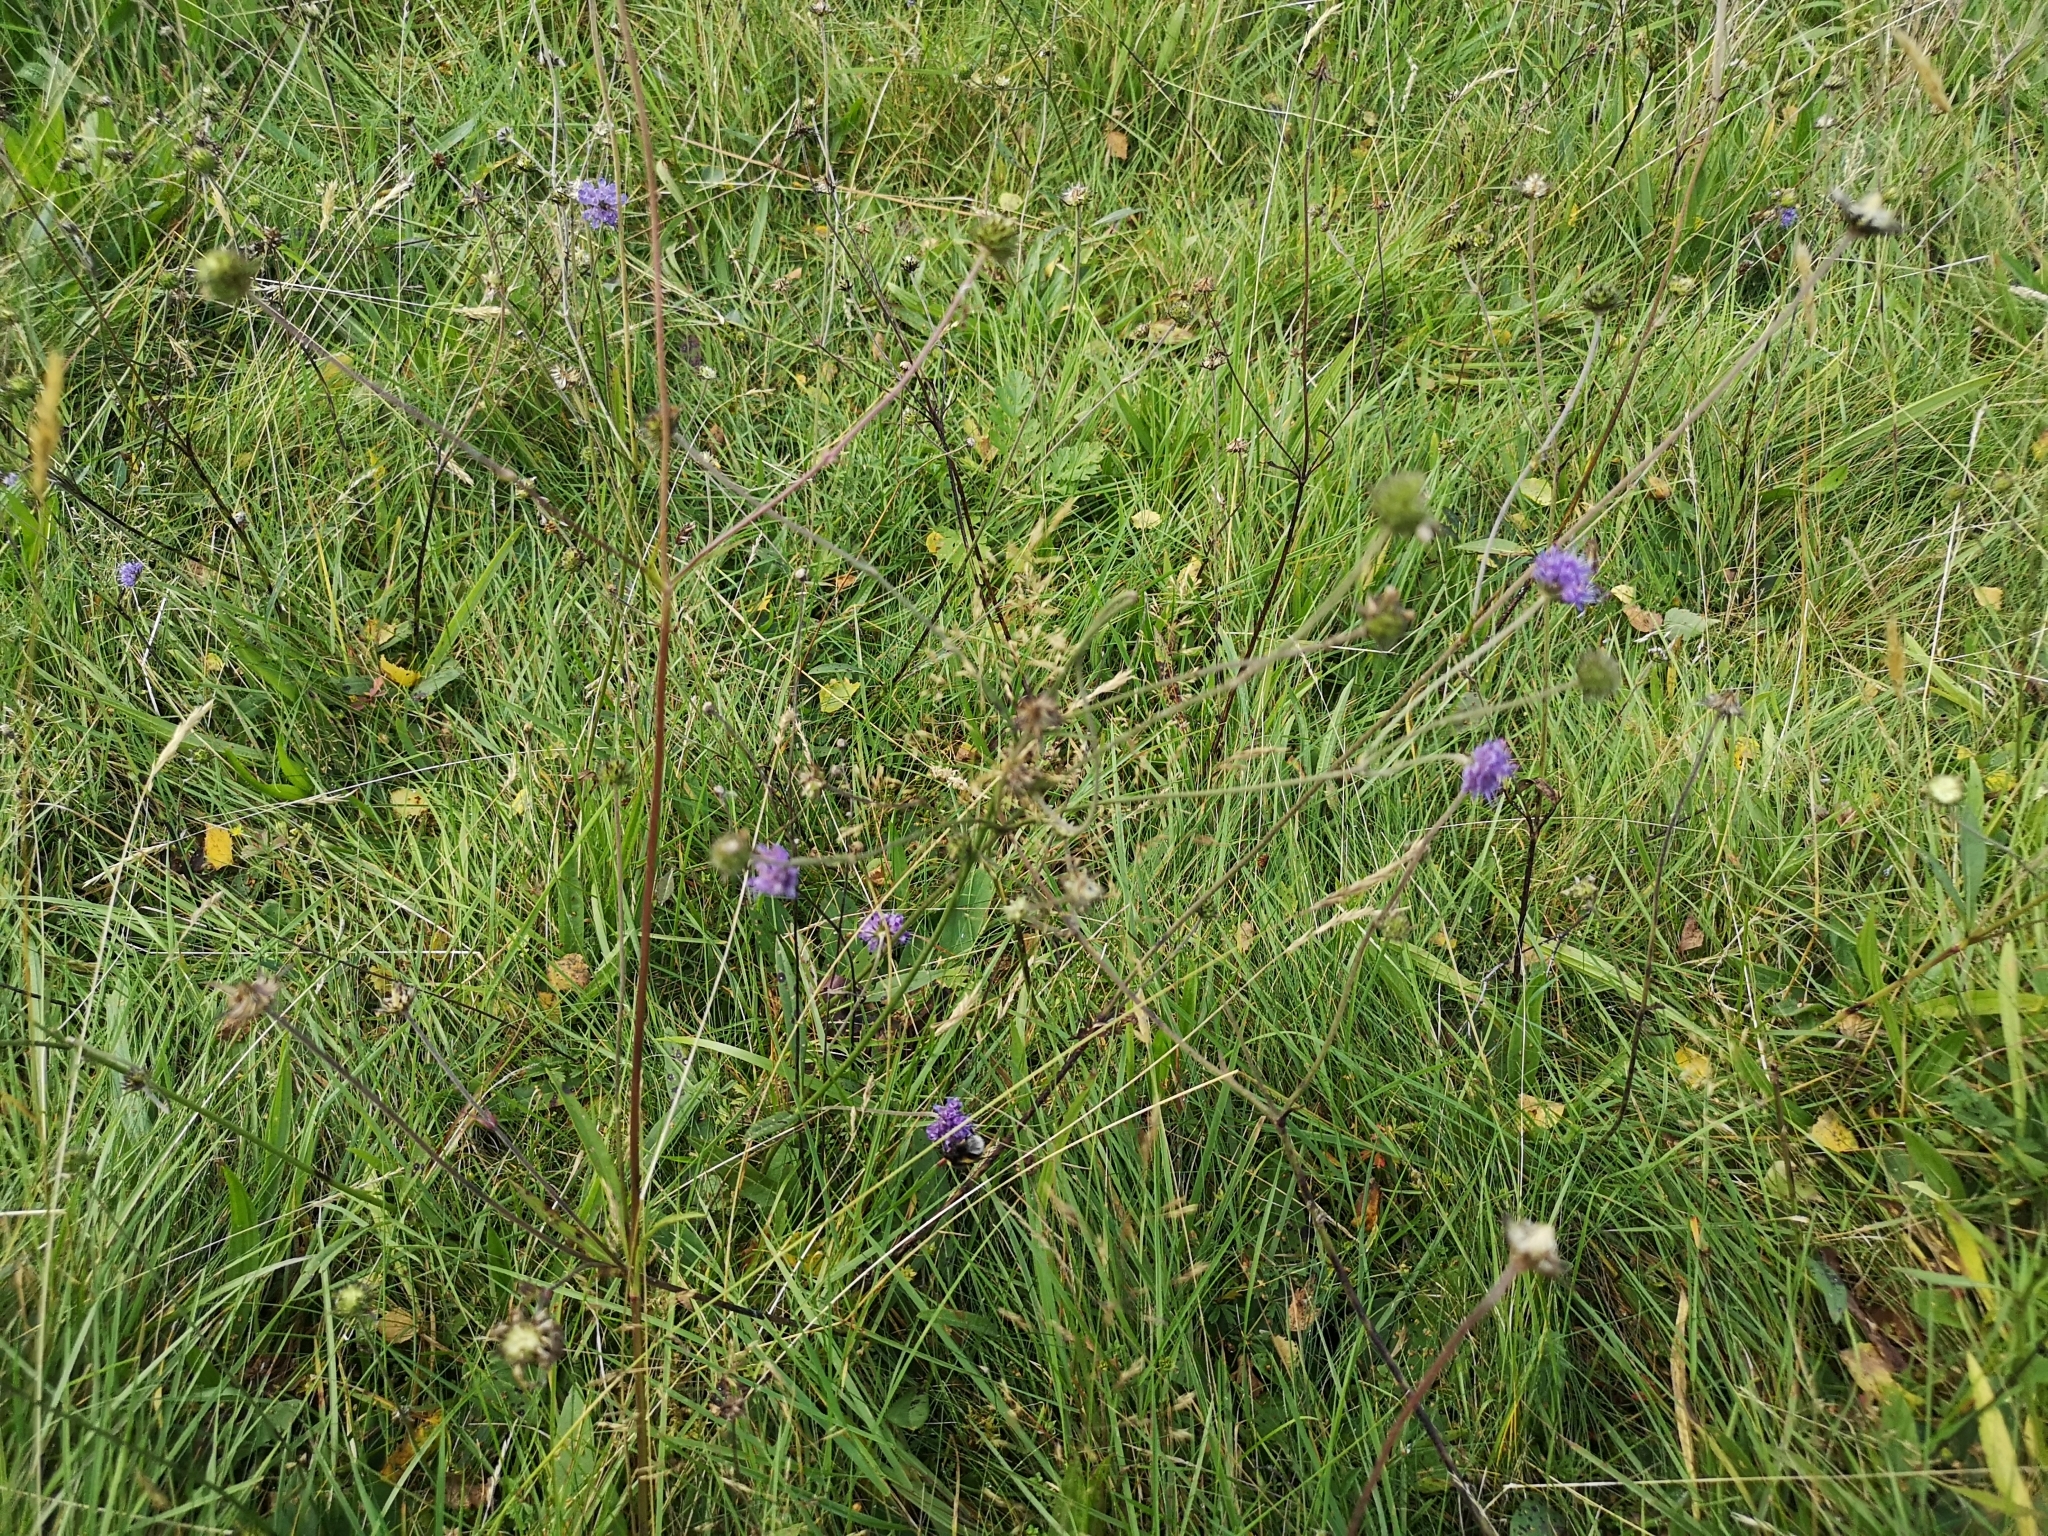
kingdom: Plantae
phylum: Tracheophyta
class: Magnoliopsida
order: Dipsacales
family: Caprifoliaceae
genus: Succisa
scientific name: Succisa pratensis
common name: Devil's-bit
